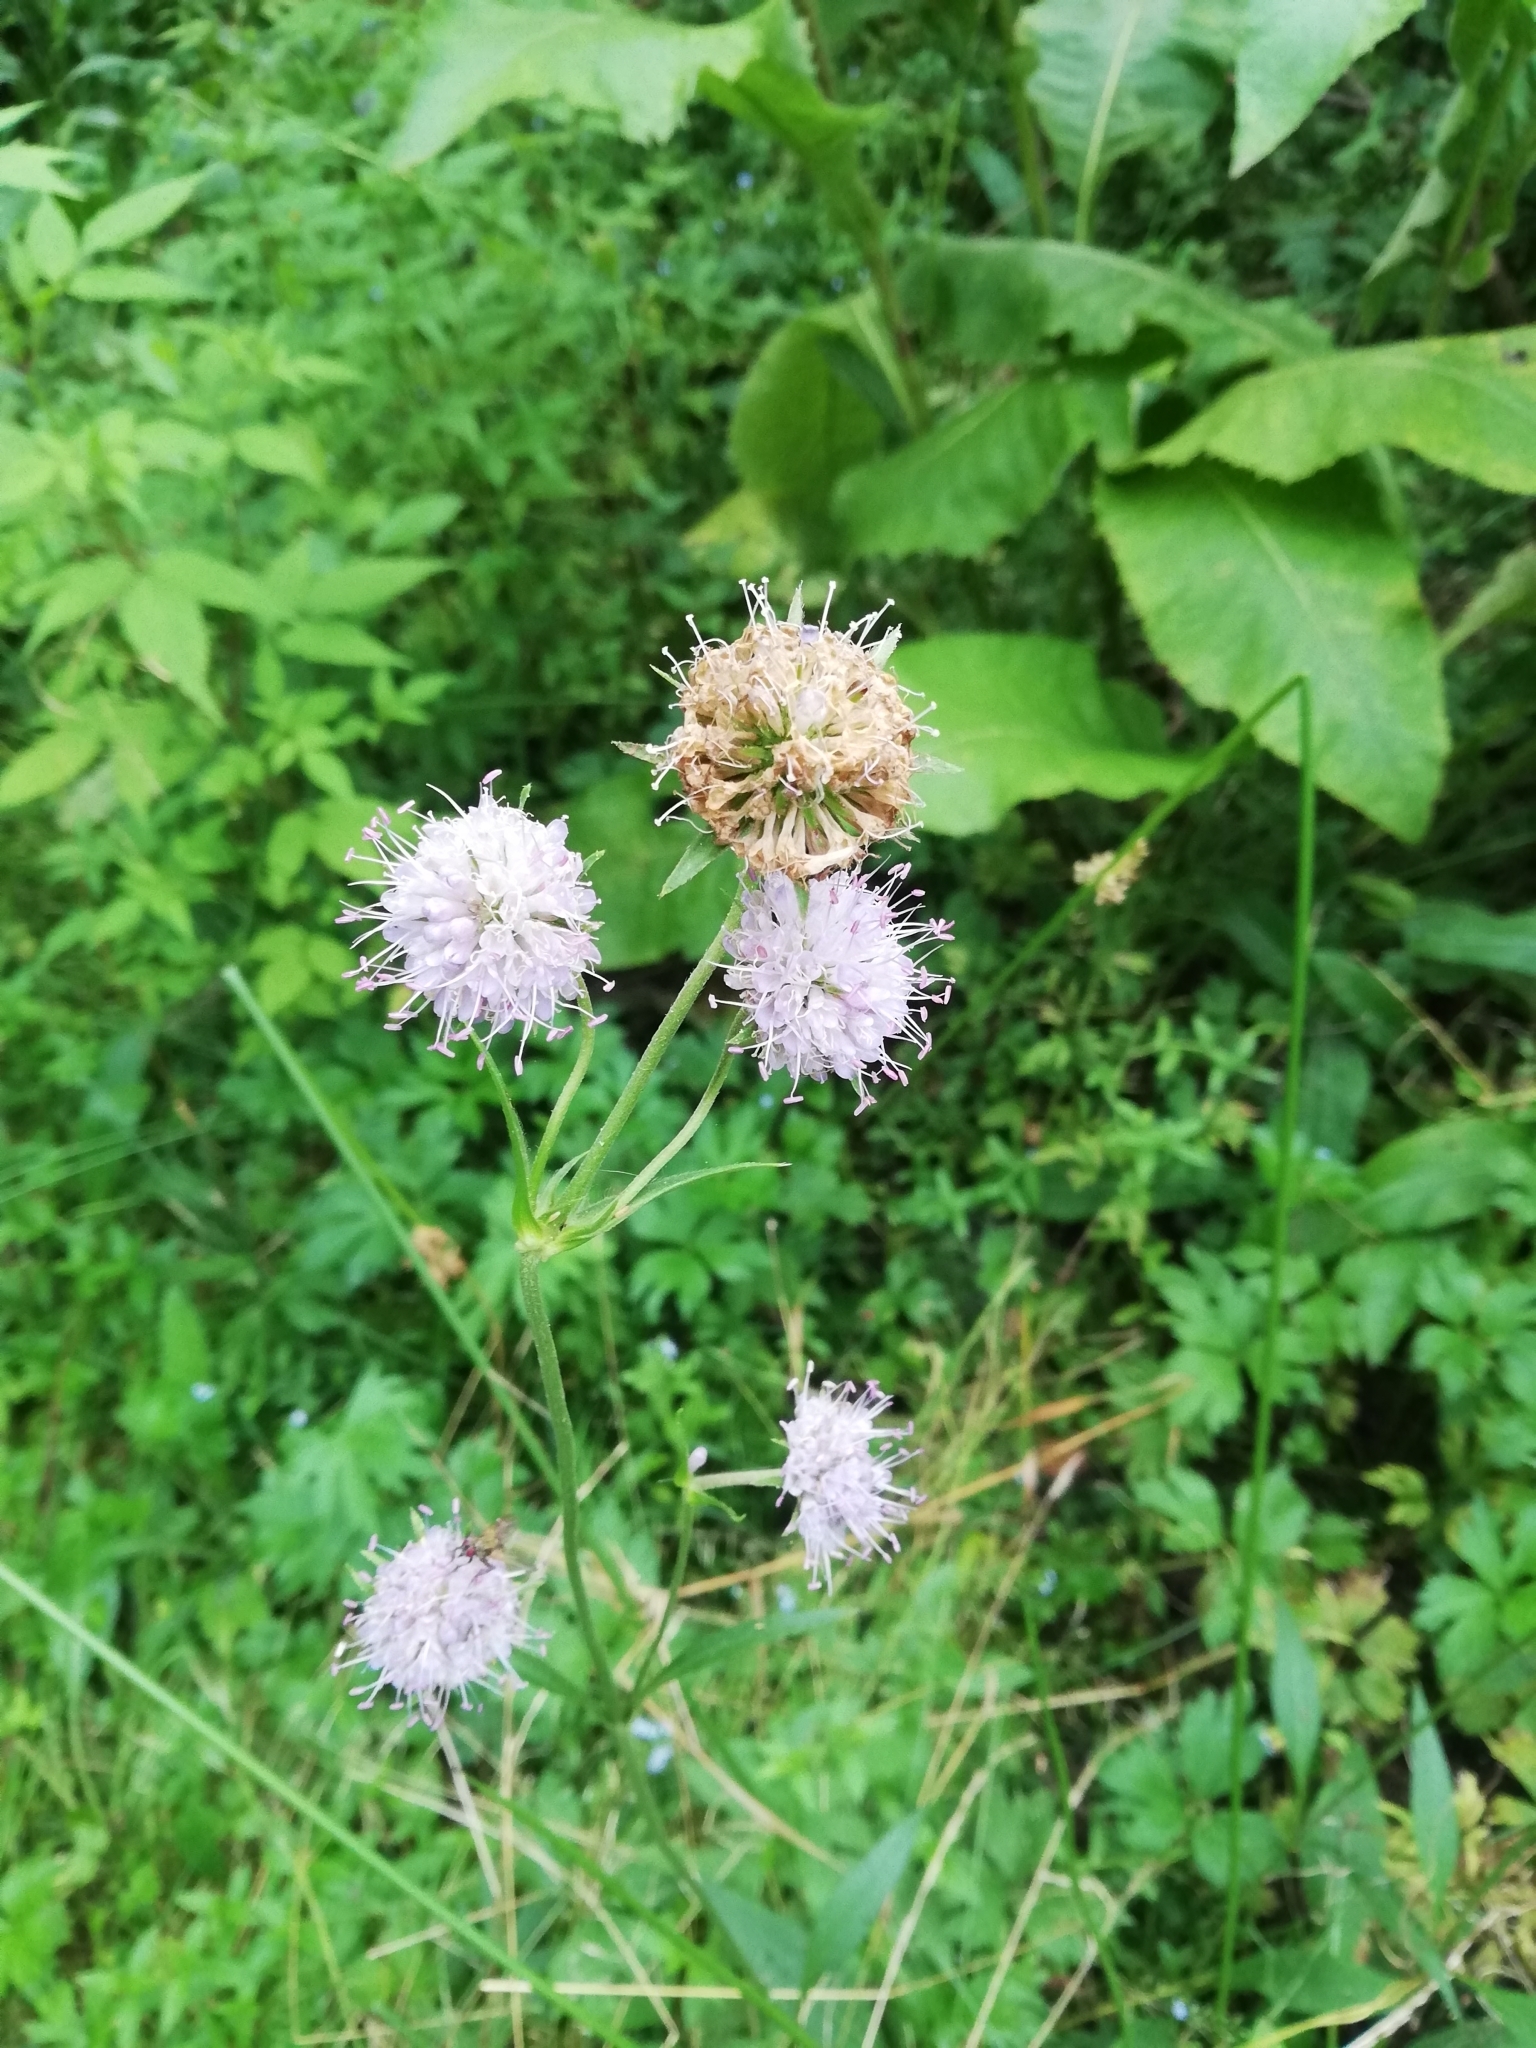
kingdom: Plantae
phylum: Tracheophyta
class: Magnoliopsida
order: Dipsacales
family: Caprifoliaceae
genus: Succisa
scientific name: Succisa pratensis
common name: Devil's-bit
